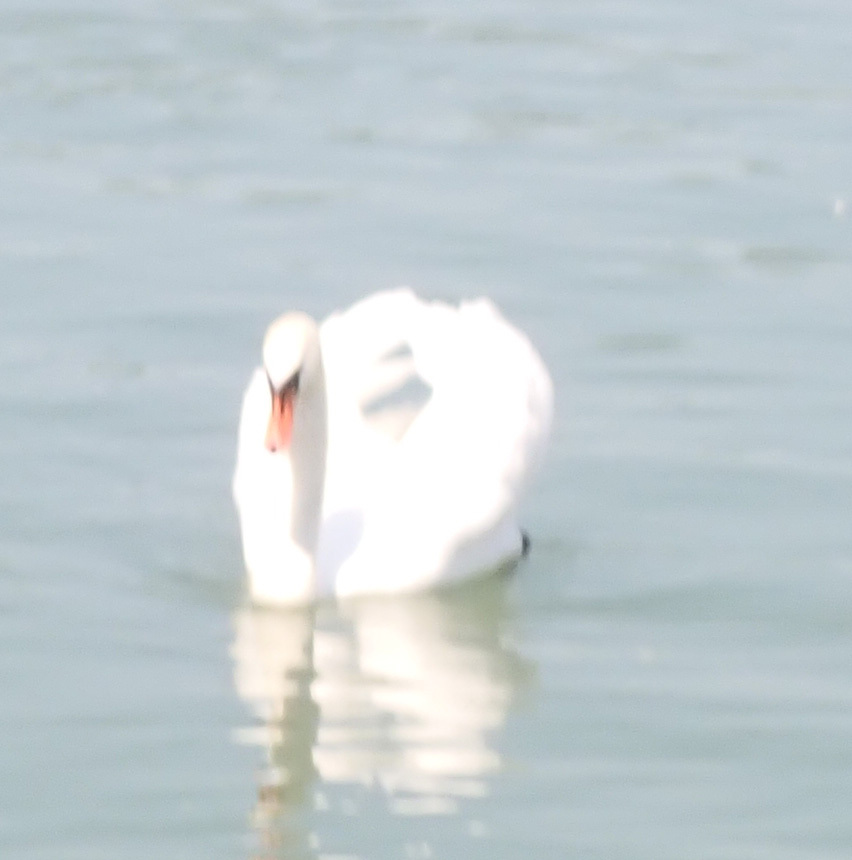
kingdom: Animalia
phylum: Chordata
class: Aves
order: Anseriformes
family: Anatidae
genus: Cygnus
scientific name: Cygnus olor
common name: Mute swan
